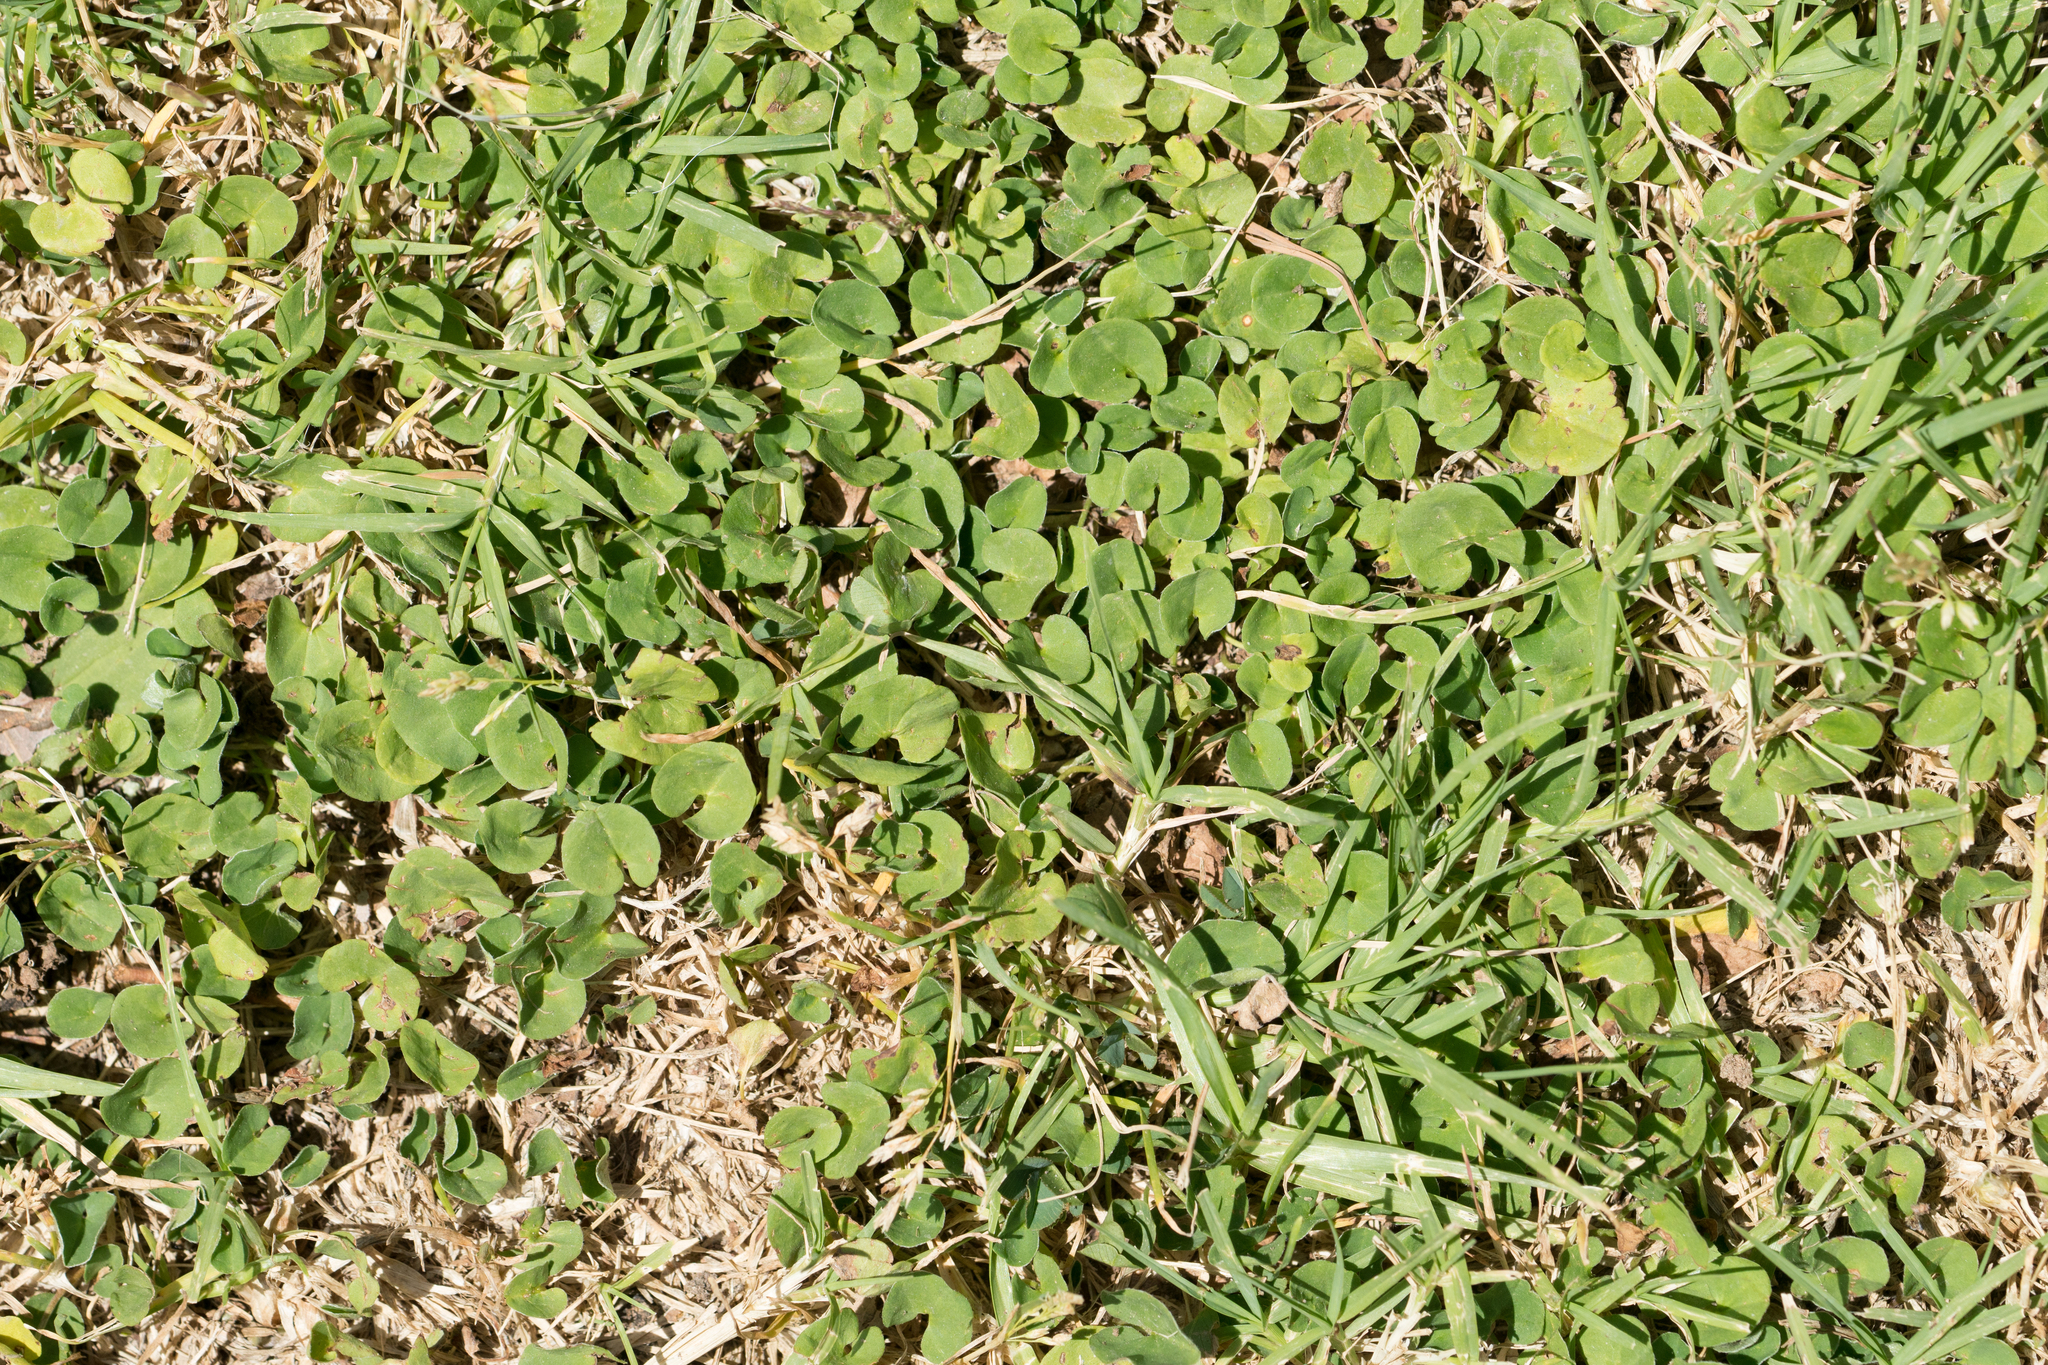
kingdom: Plantae
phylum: Tracheophyta
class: Magnoliopsida
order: Solanales
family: Convolvulaceae
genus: Dichondra
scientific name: Dichondra micrantha
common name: Kidneyweed
